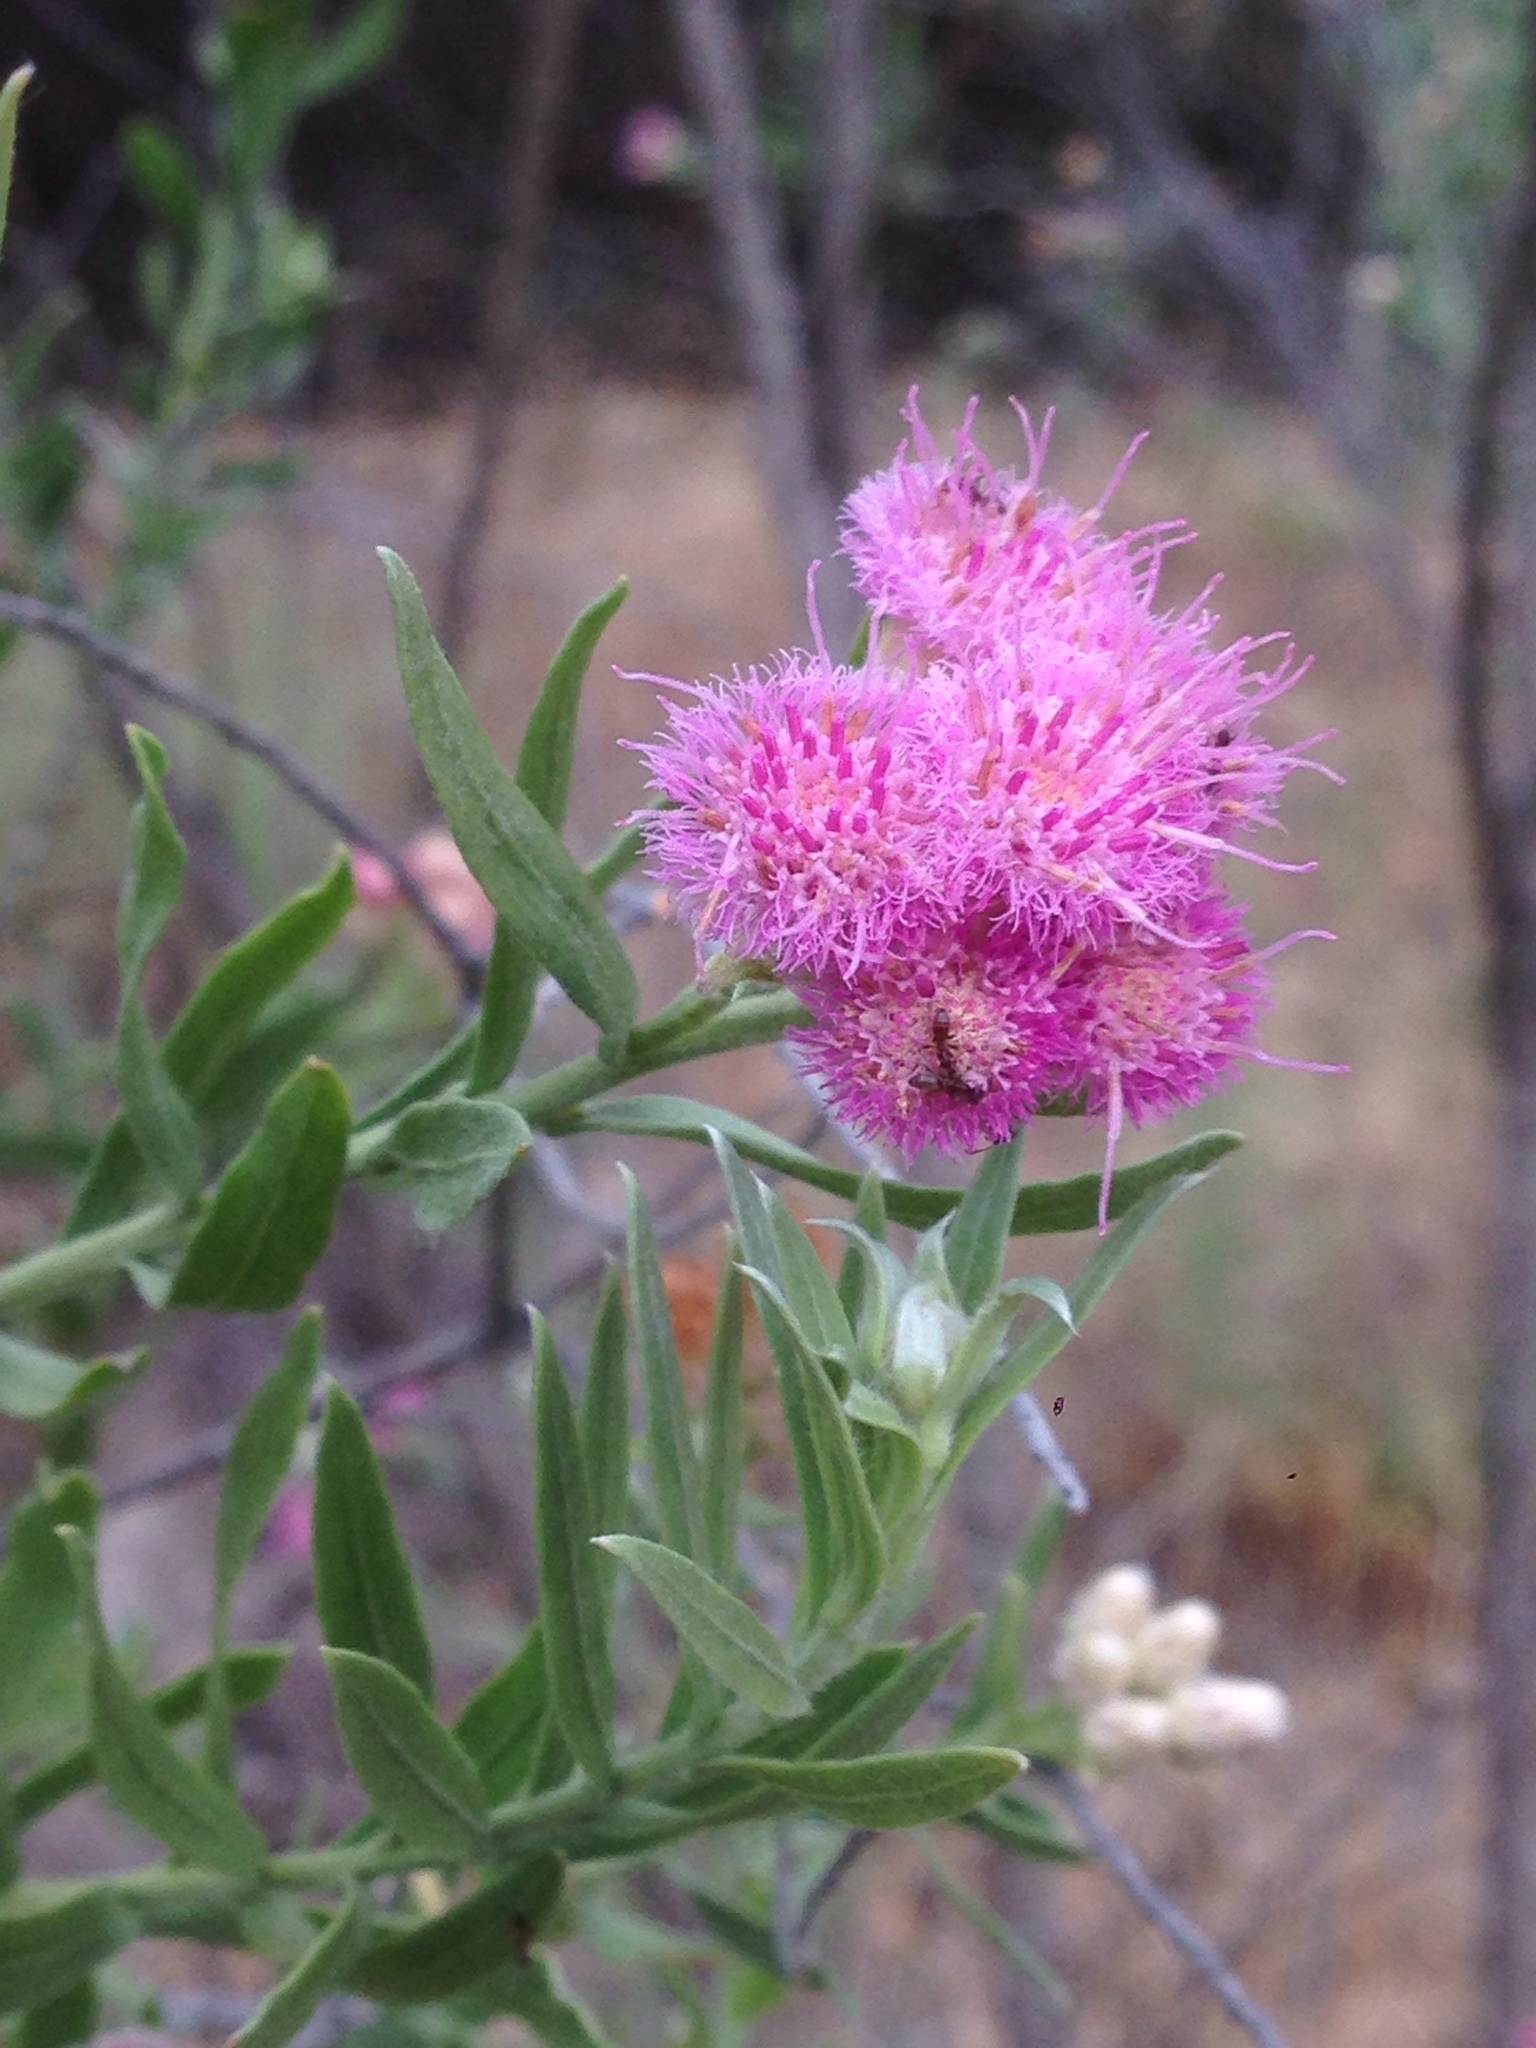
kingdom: Plantae
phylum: Tracheophyta
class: Magnoliopsida
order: Asterales
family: Asteraceae
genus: Pluchea
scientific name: Pluchea sericea
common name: Arrow-weed
